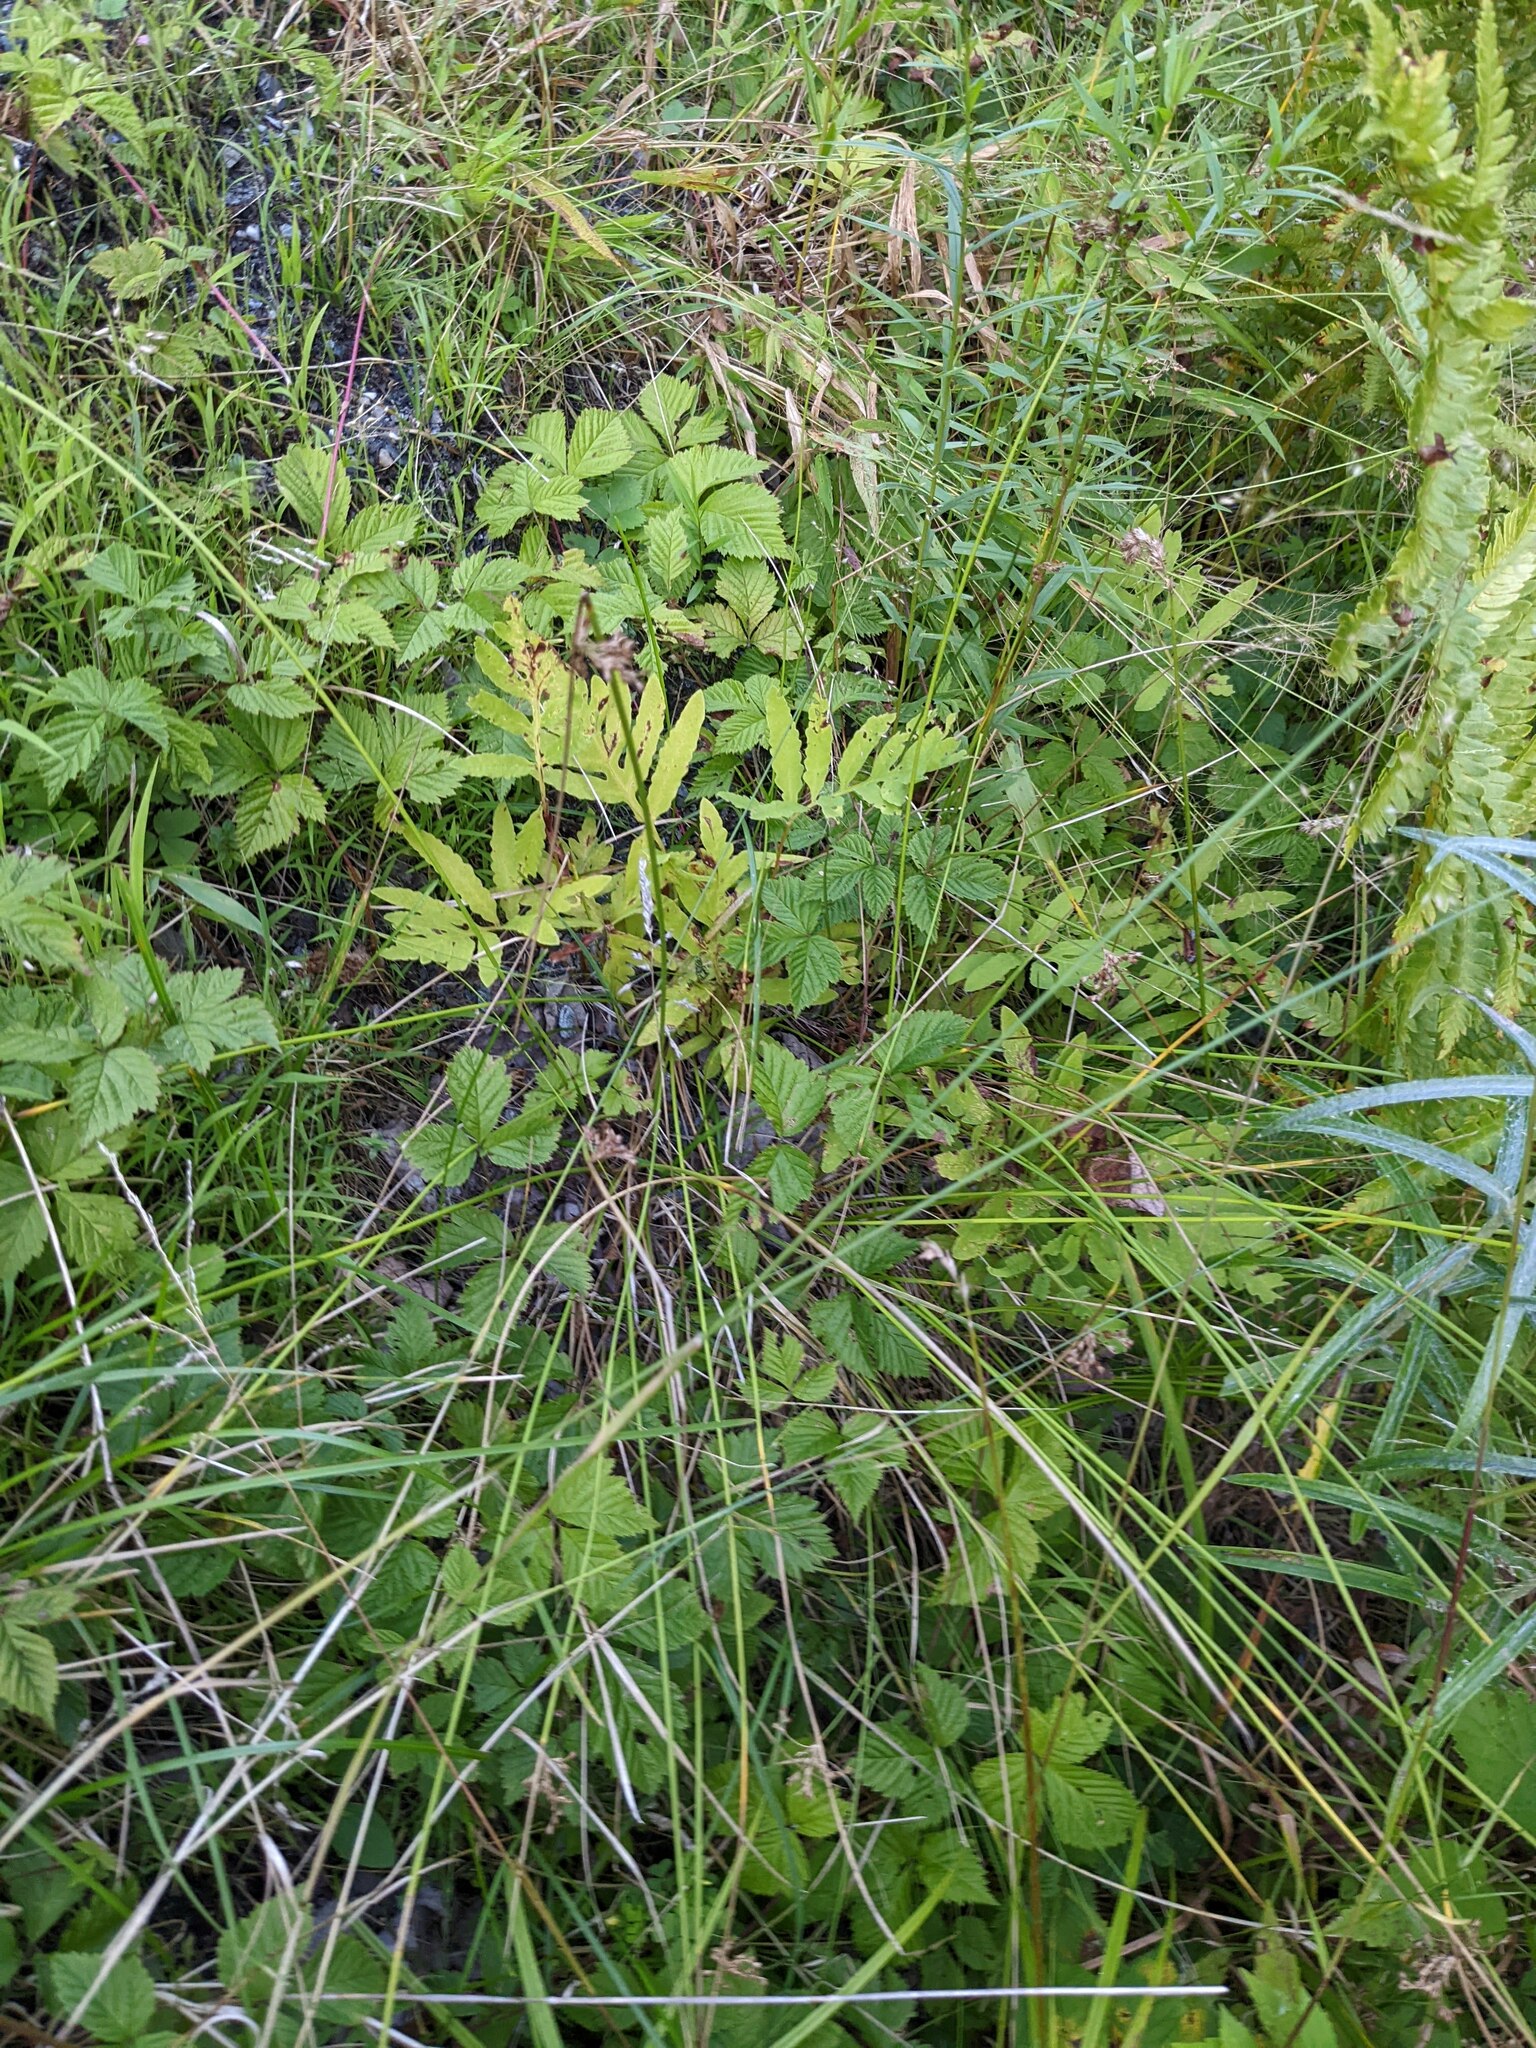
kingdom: Plantae
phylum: Tracheophyta
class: Polypodiopsida
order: Polypodiales
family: Onocleaceae
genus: Onoclea
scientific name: Onoclea sensibilis
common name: Sensitive fern
